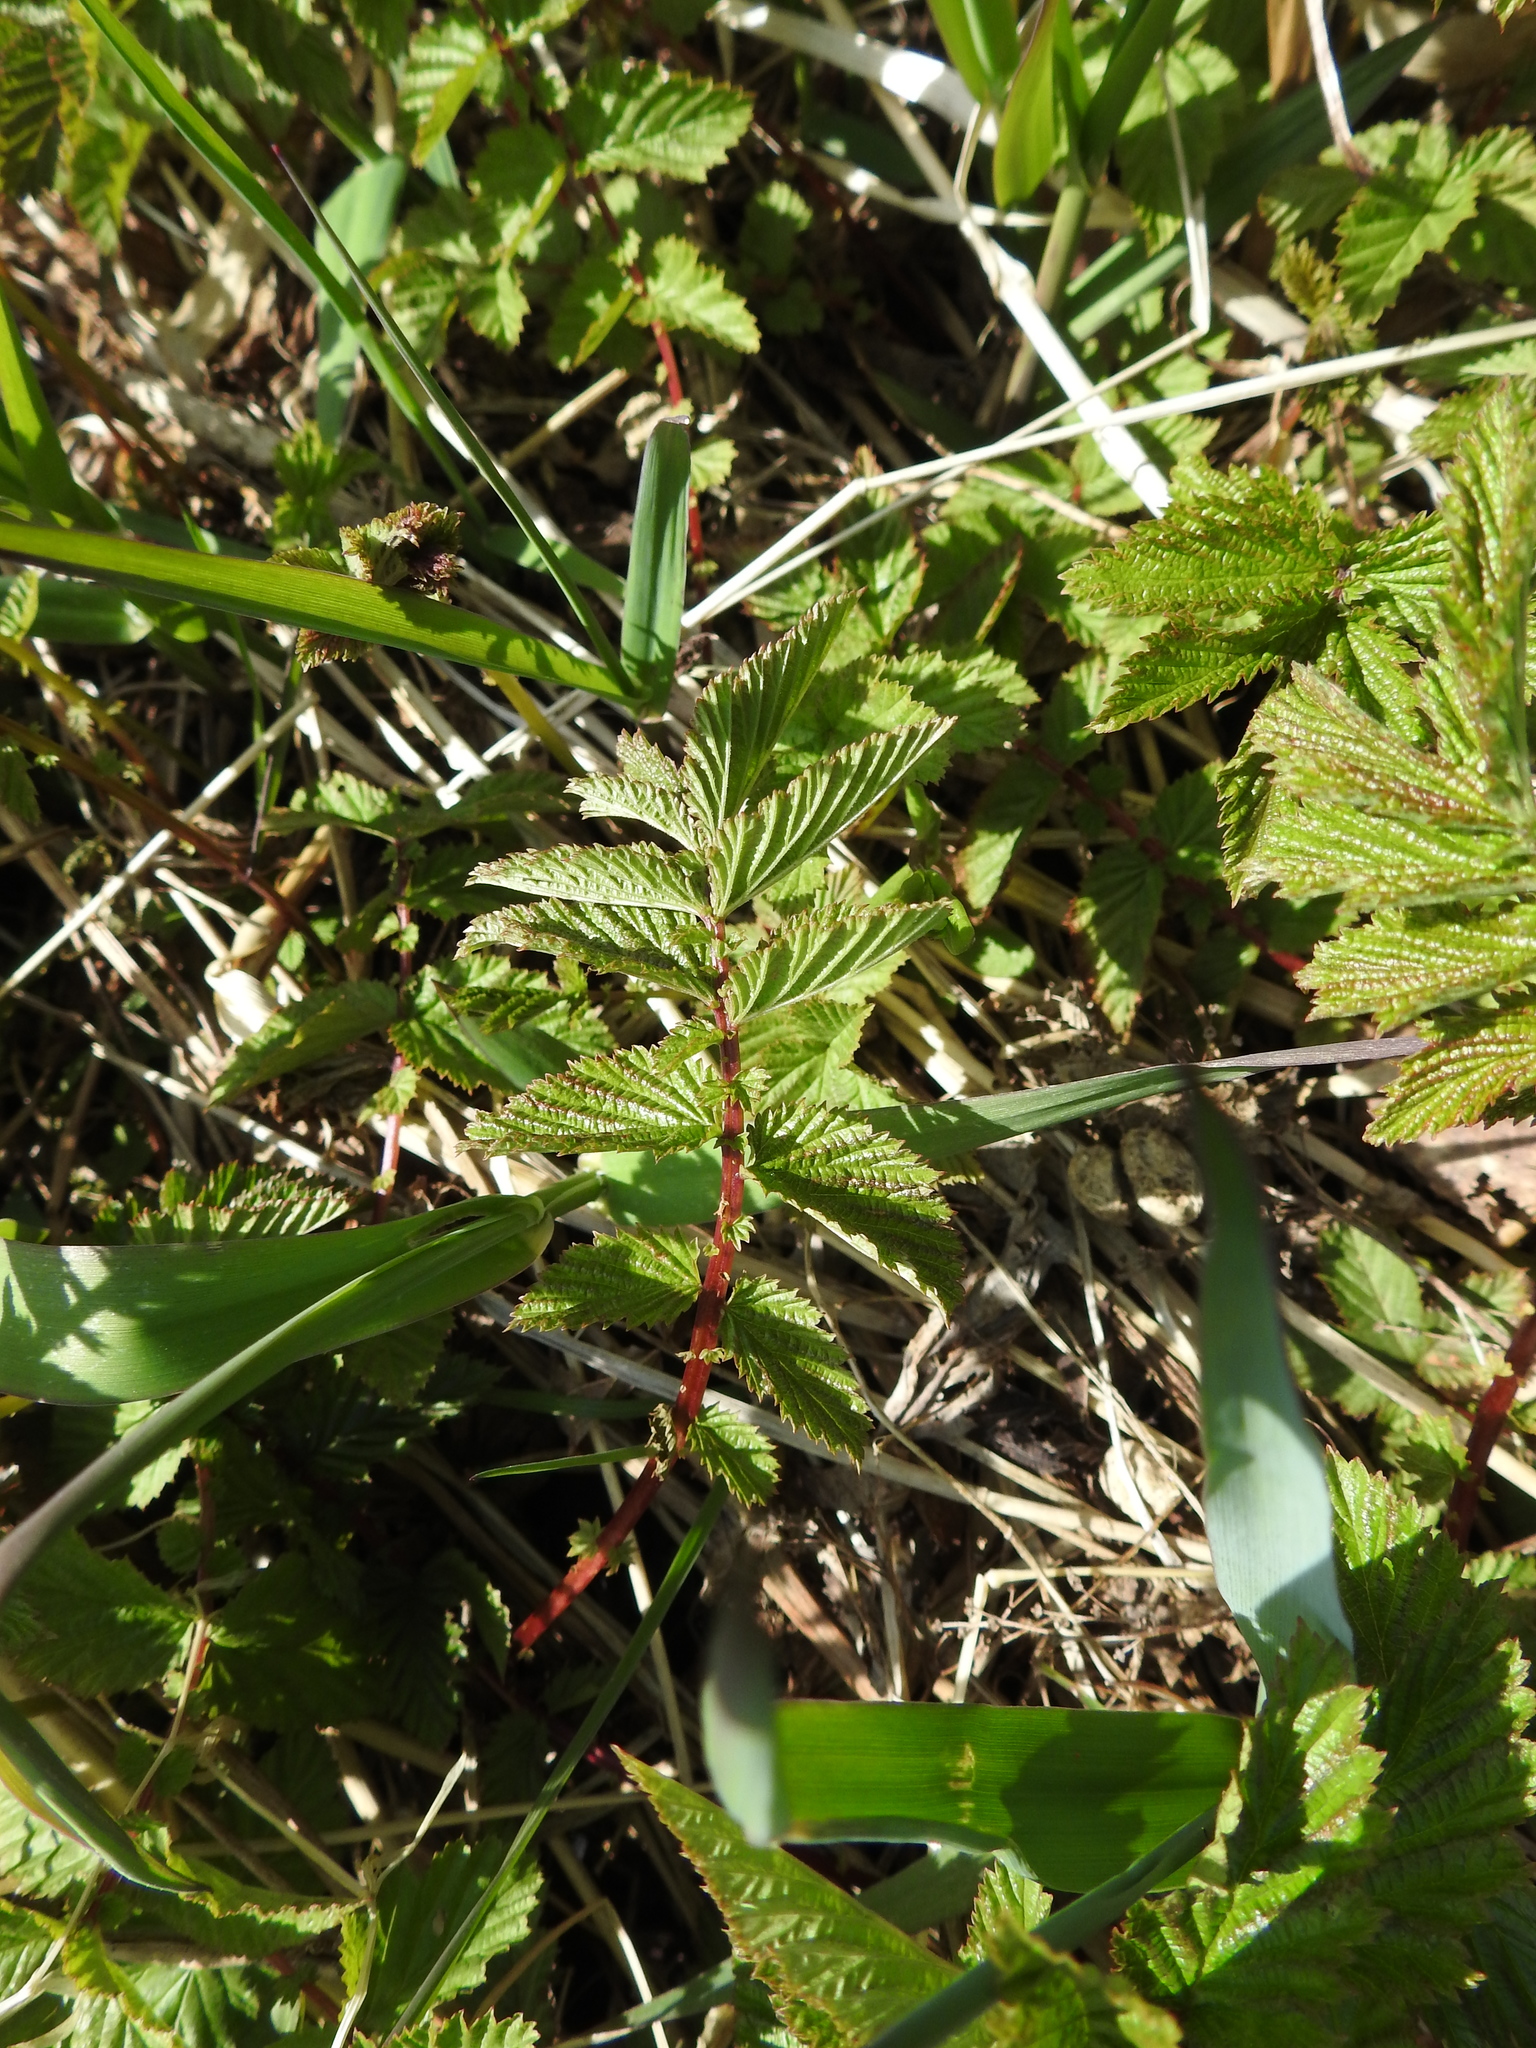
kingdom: Plantae
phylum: Tracheophyta
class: Magnoliopsida
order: Rosales
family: Rosaceae
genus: Filipendula
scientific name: Filipendula ulmaria
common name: Meadowsweet
